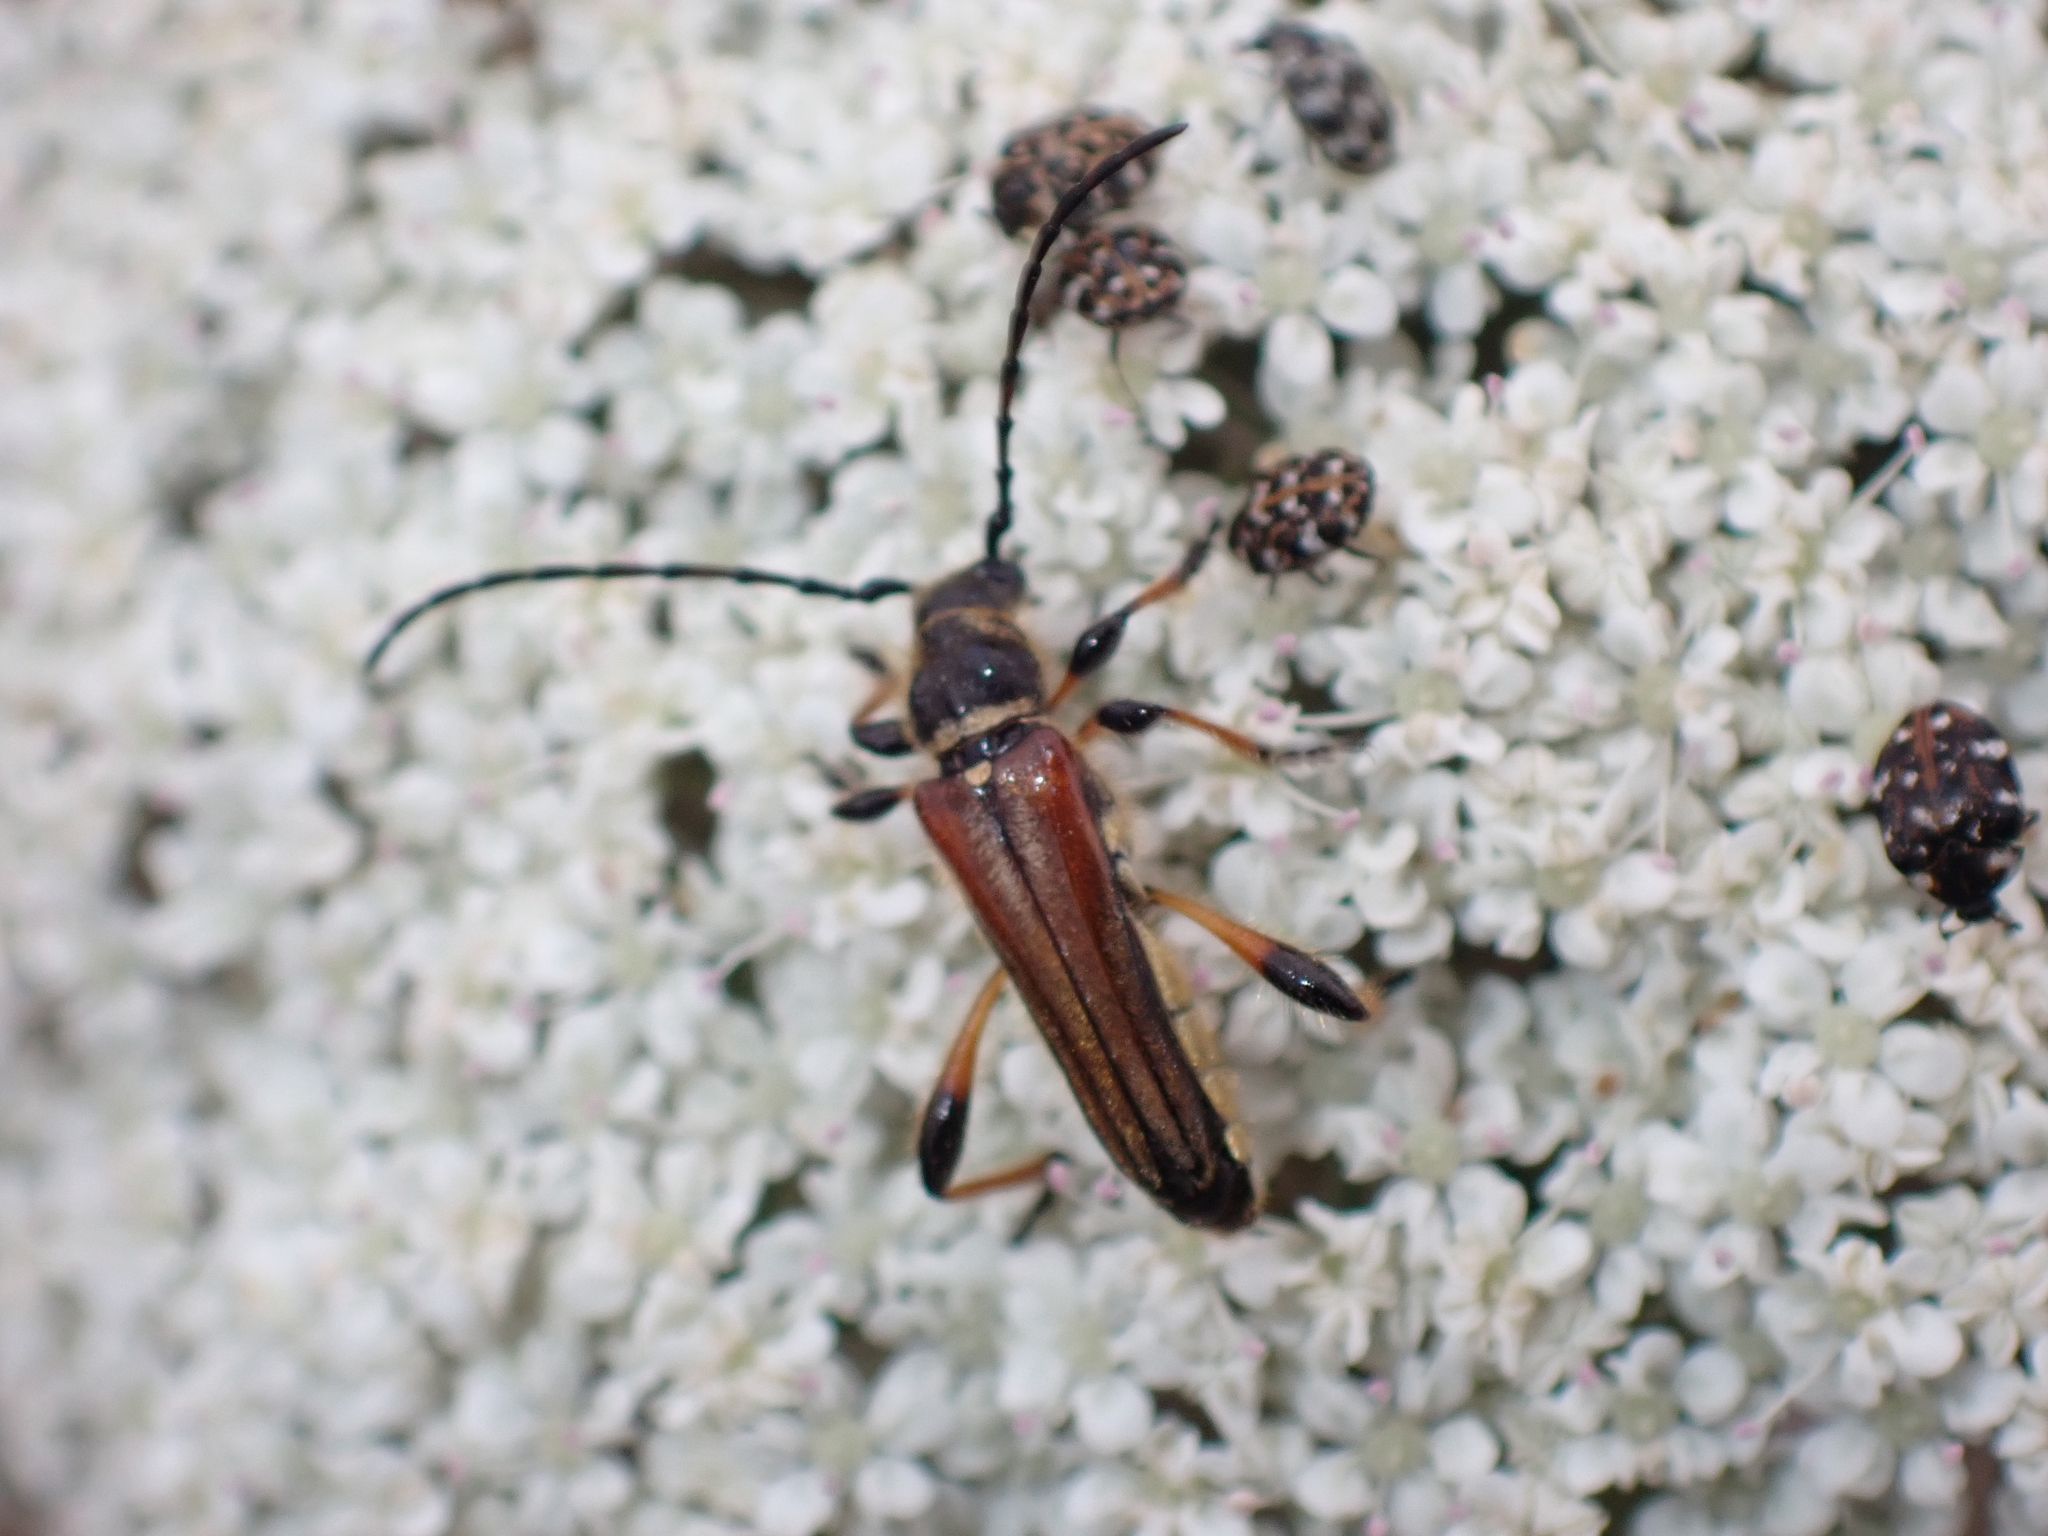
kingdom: Animalia
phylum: Arthropoda
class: Insecta
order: Coleoptera
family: Cerambycidae
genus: Stenopterus
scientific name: Stenopterus ater
